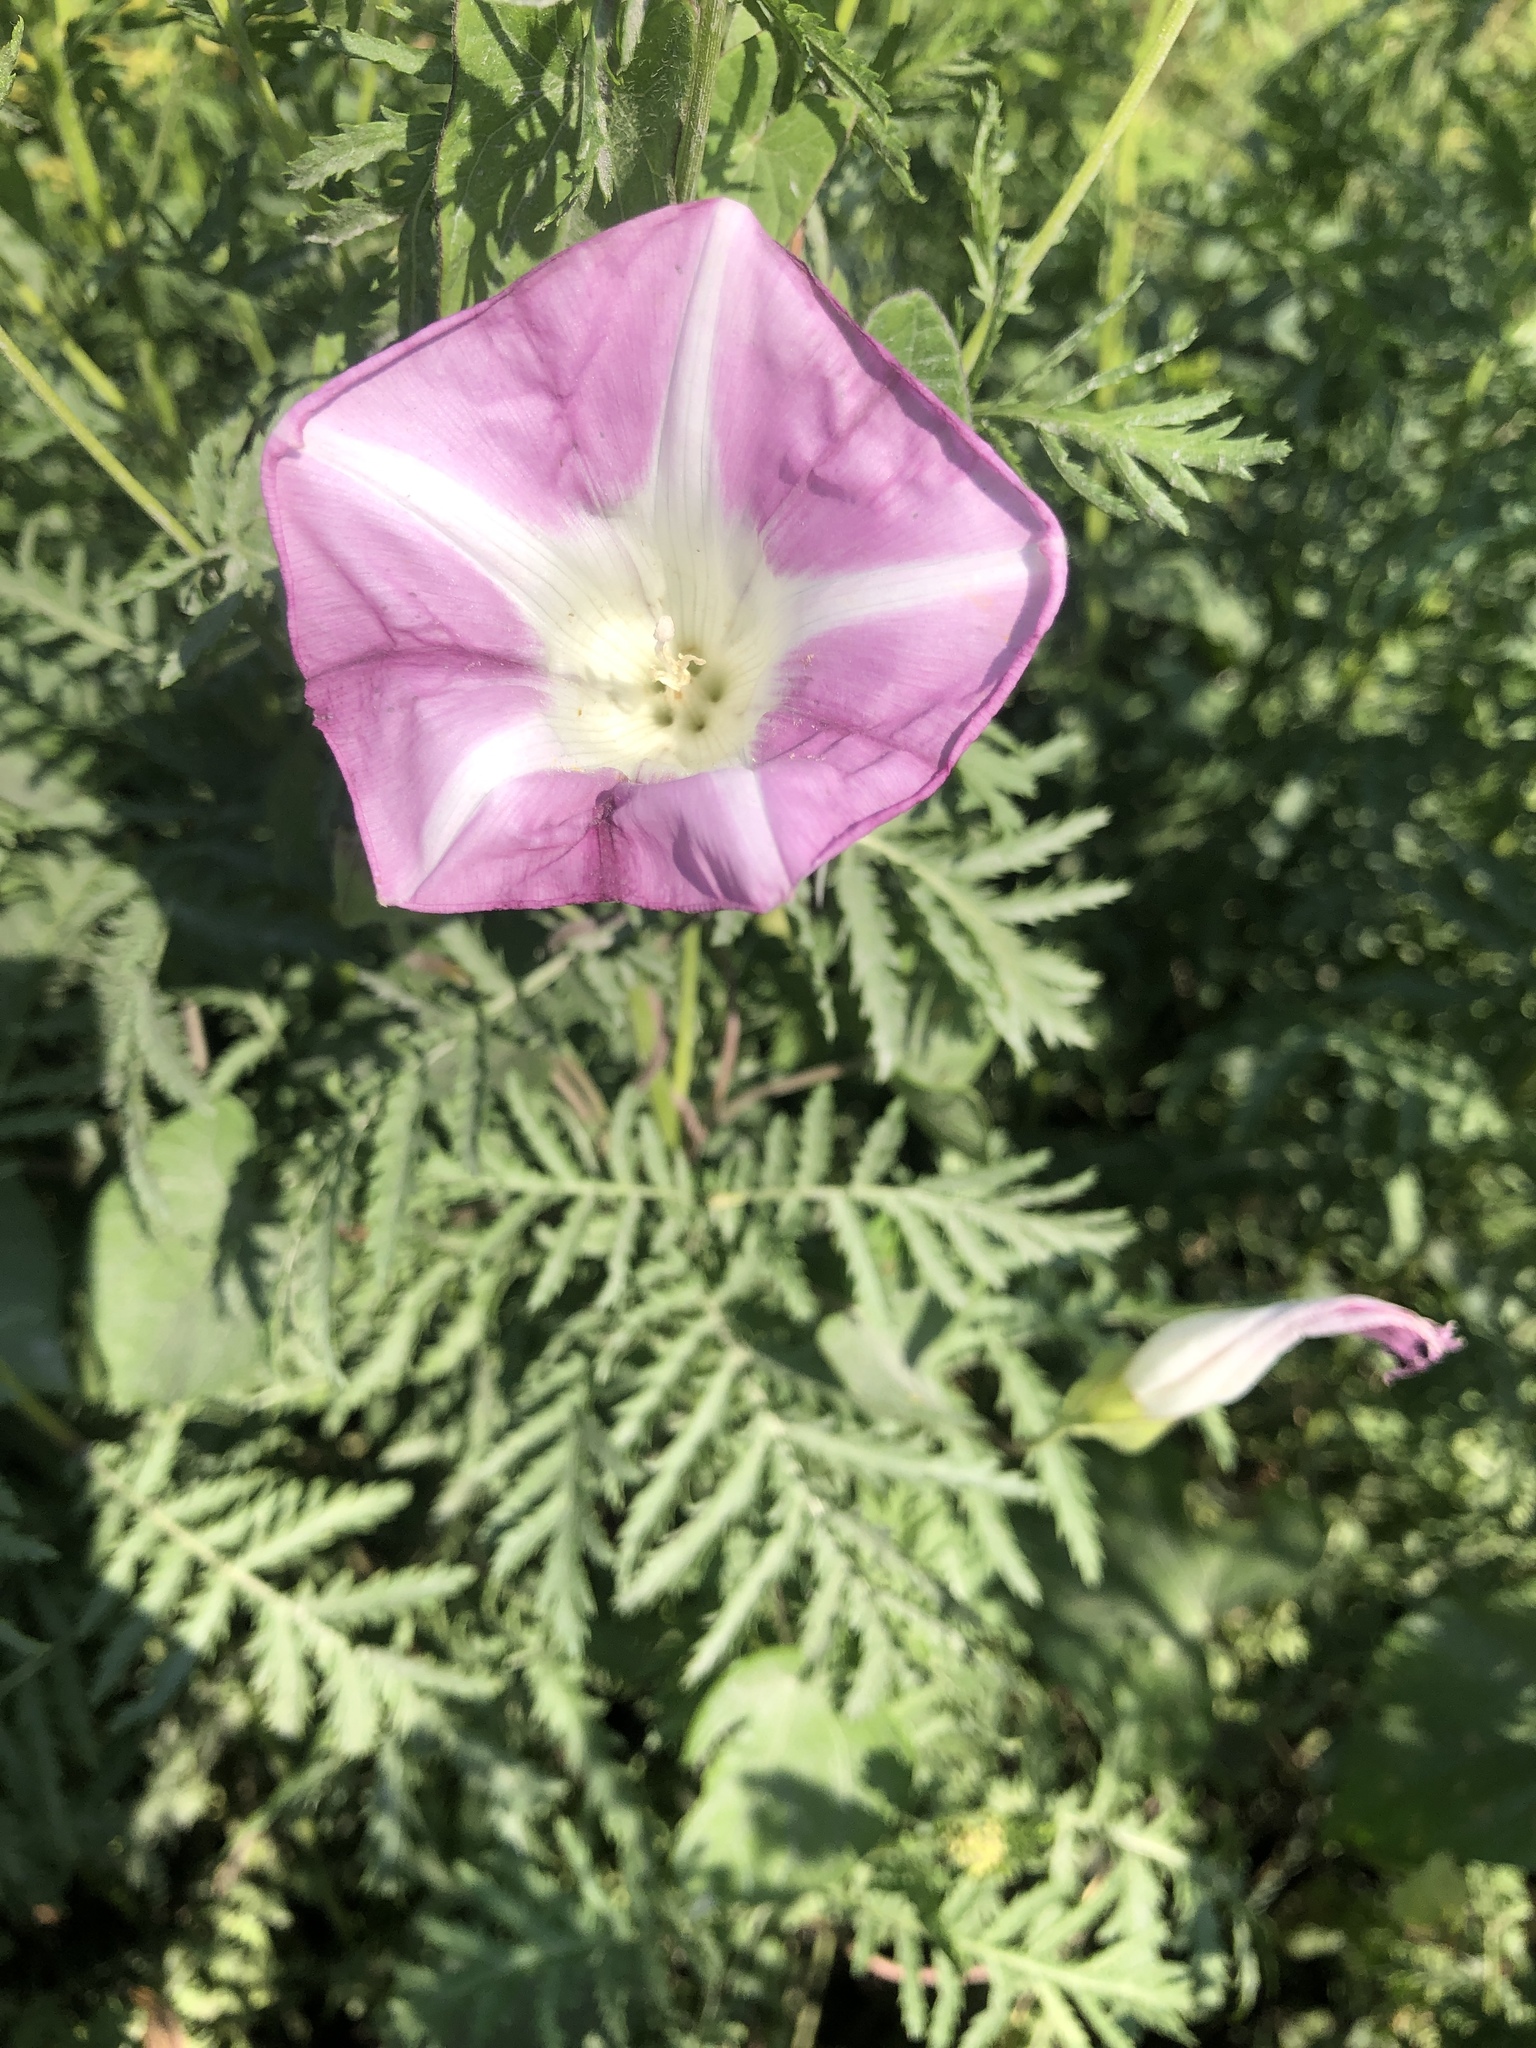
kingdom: Plantae
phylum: Tracheophyta
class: Magnoliopsida
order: Solanales
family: Convolvulaceae
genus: Calystegia
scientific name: Calystegia sepium
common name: Hedge bindweed
